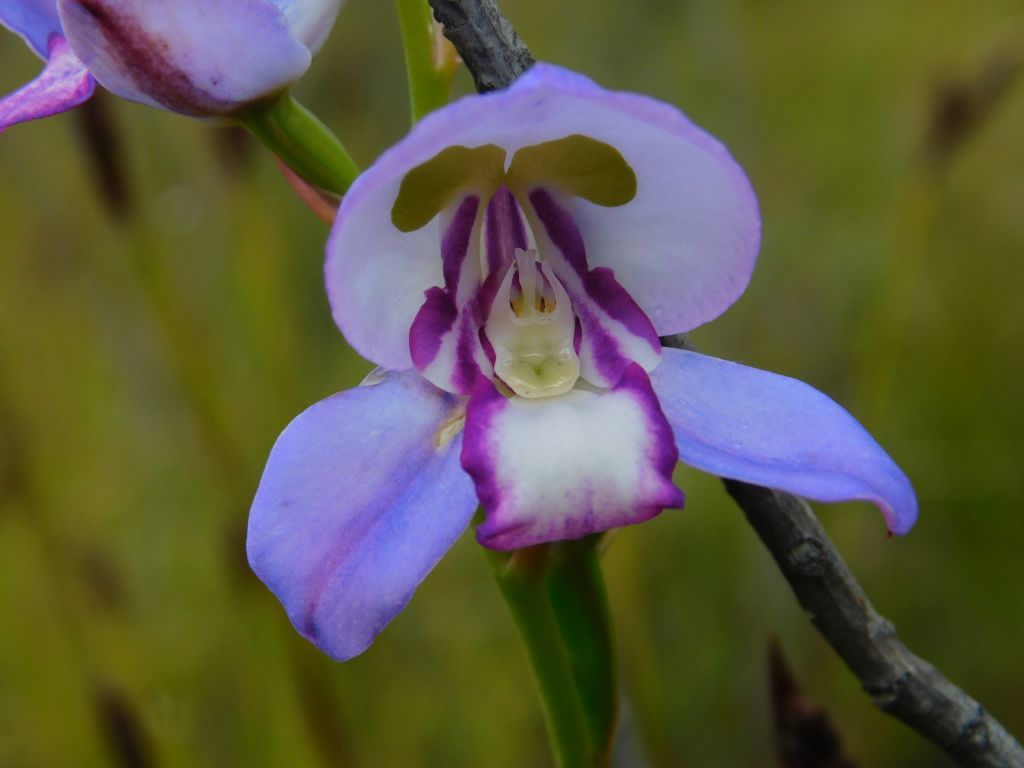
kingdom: Plantae
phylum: Tracheophyta
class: Liliopsida
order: Asparagales
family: Orchidaceae
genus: Disa
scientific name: Disa graminifolia
